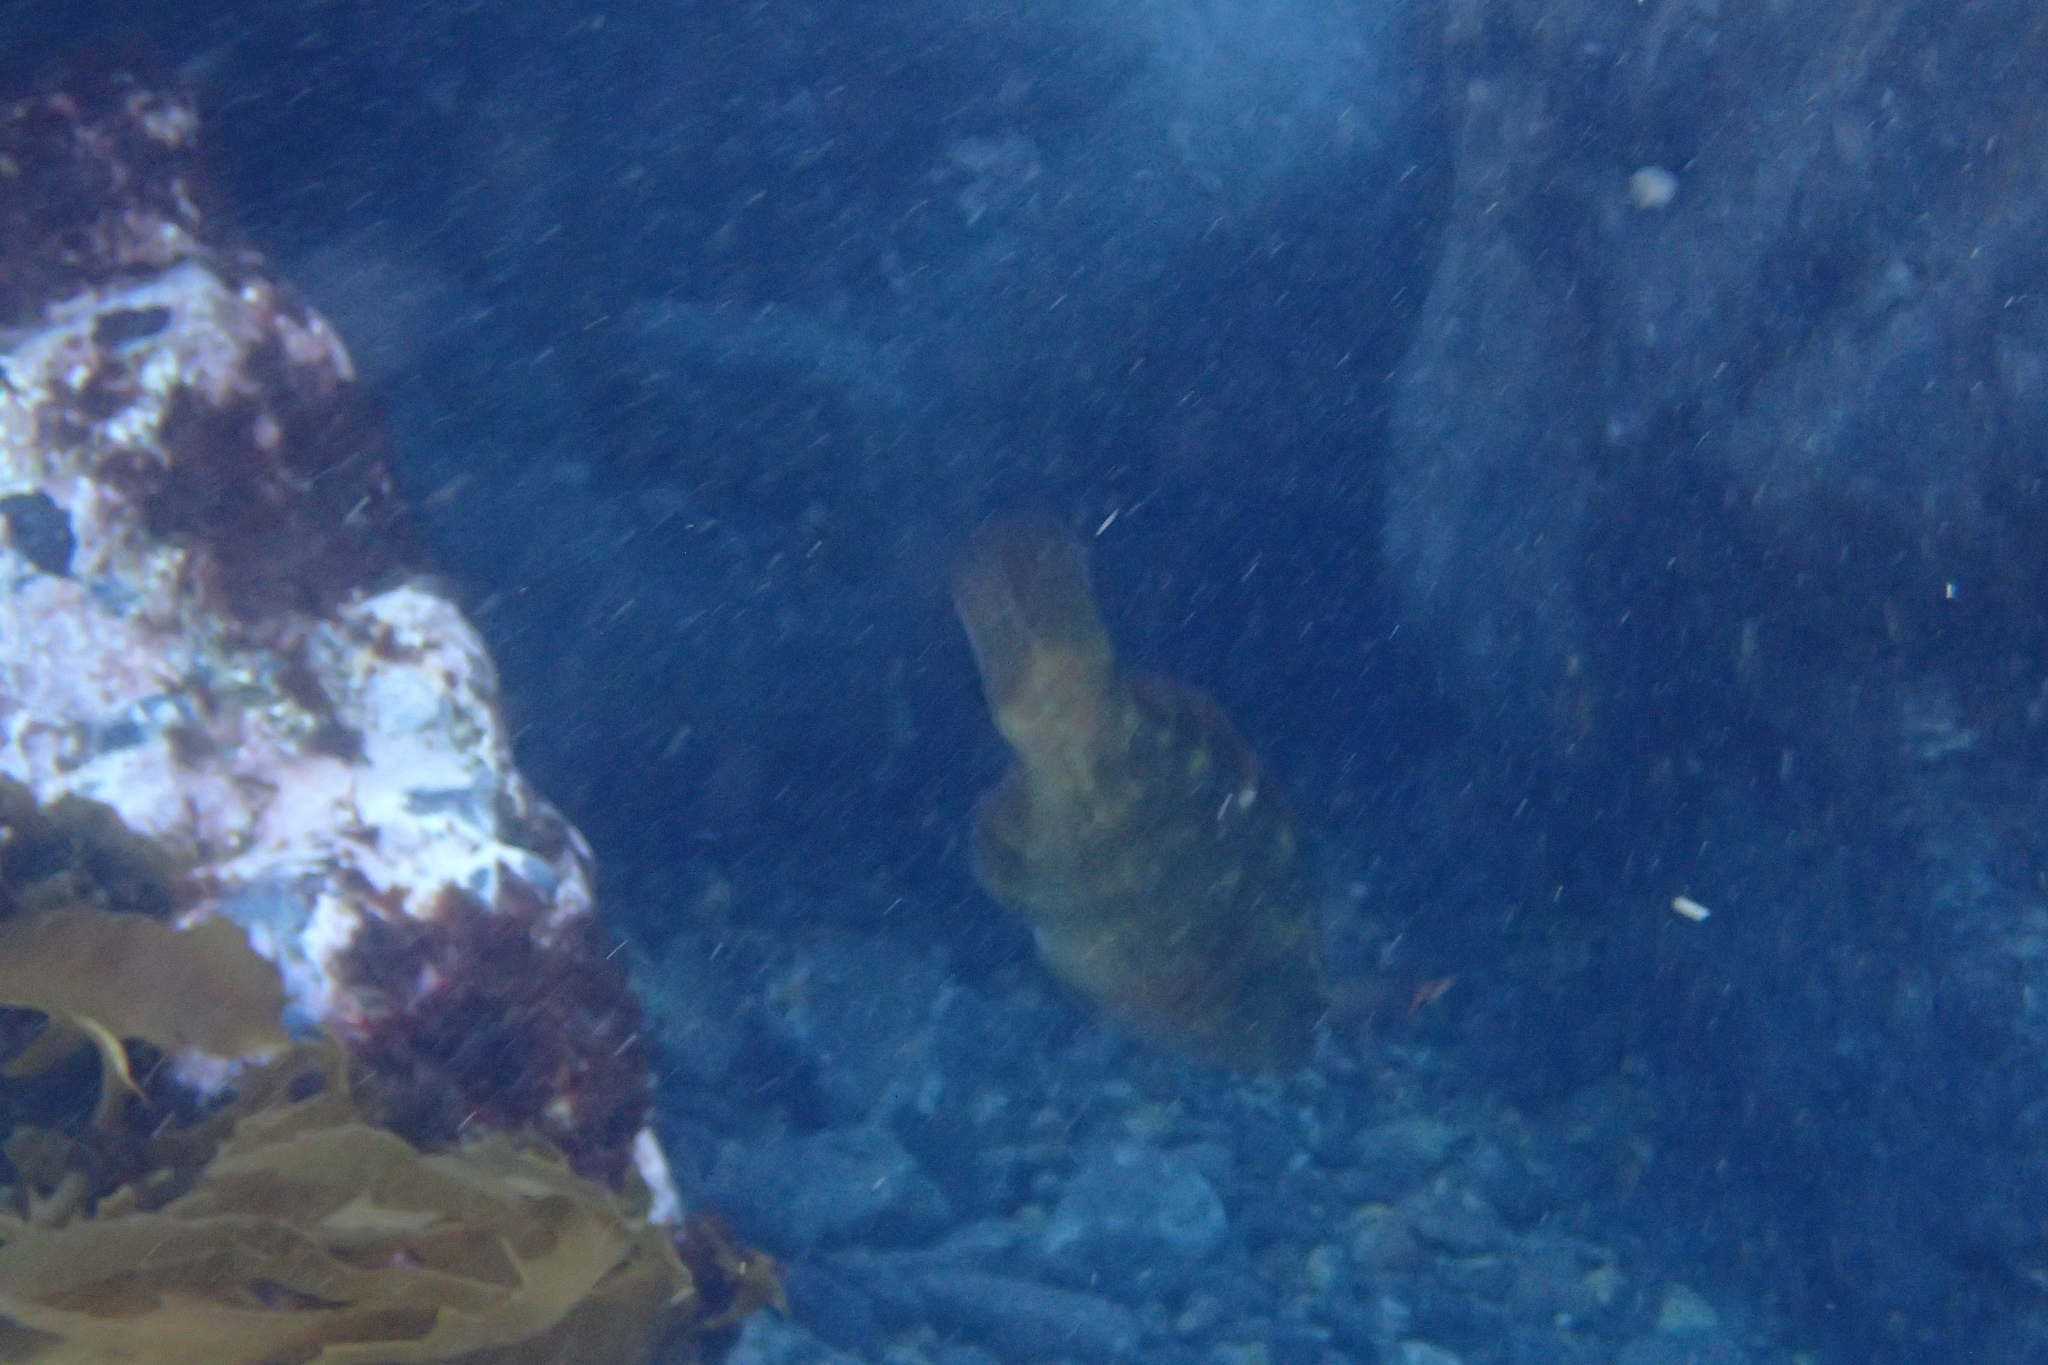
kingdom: Animalia
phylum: Chordata
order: Perciformes
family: Labridae
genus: Notolabrus
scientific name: Notolabrus fucicola
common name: Banded parrotfish
